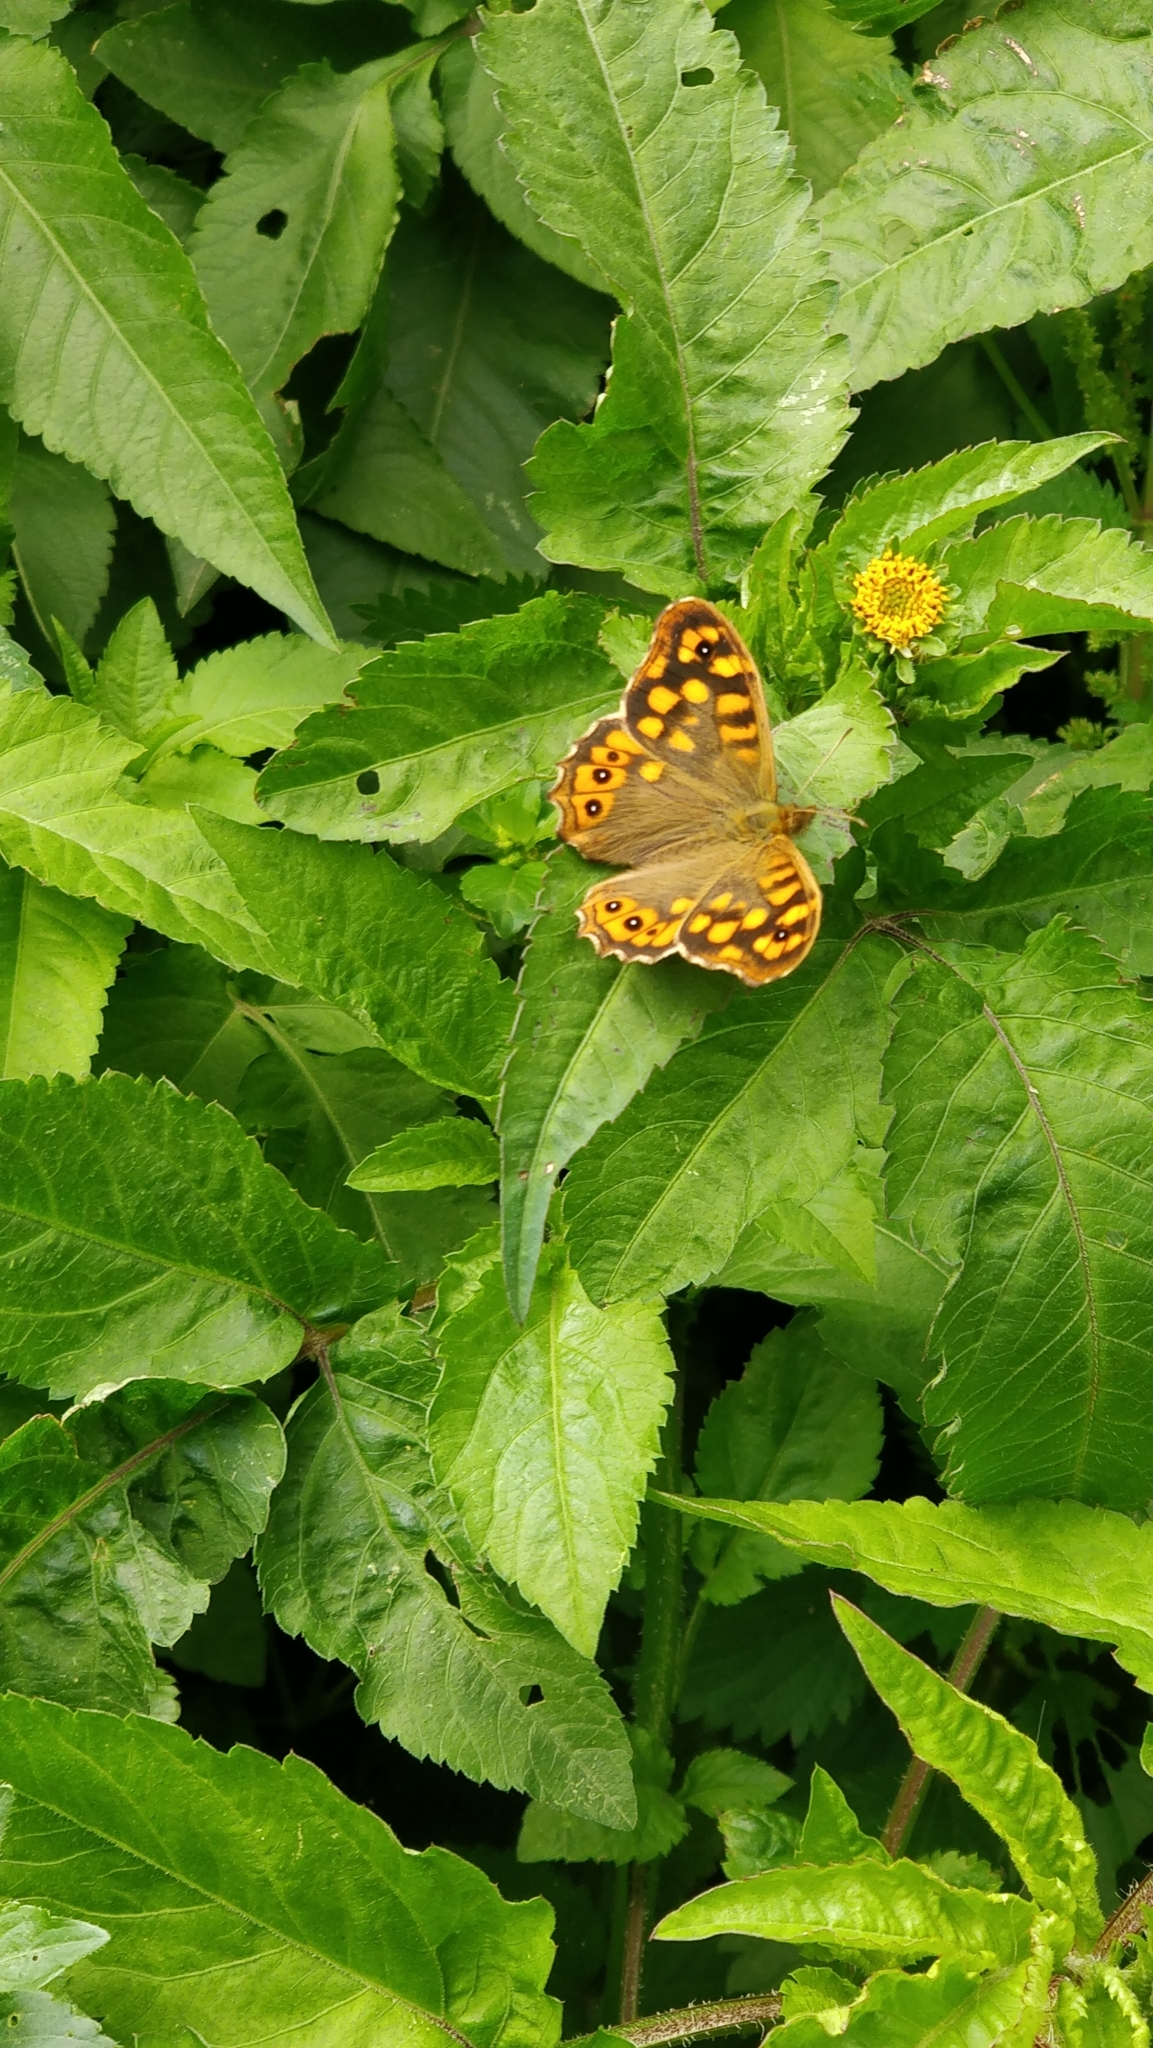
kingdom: Animalia
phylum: Arthropoda
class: Insecta
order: Lepidoptera
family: Nymphalidae
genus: Pararge
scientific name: Pararge aegeria
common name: Speckled wood
